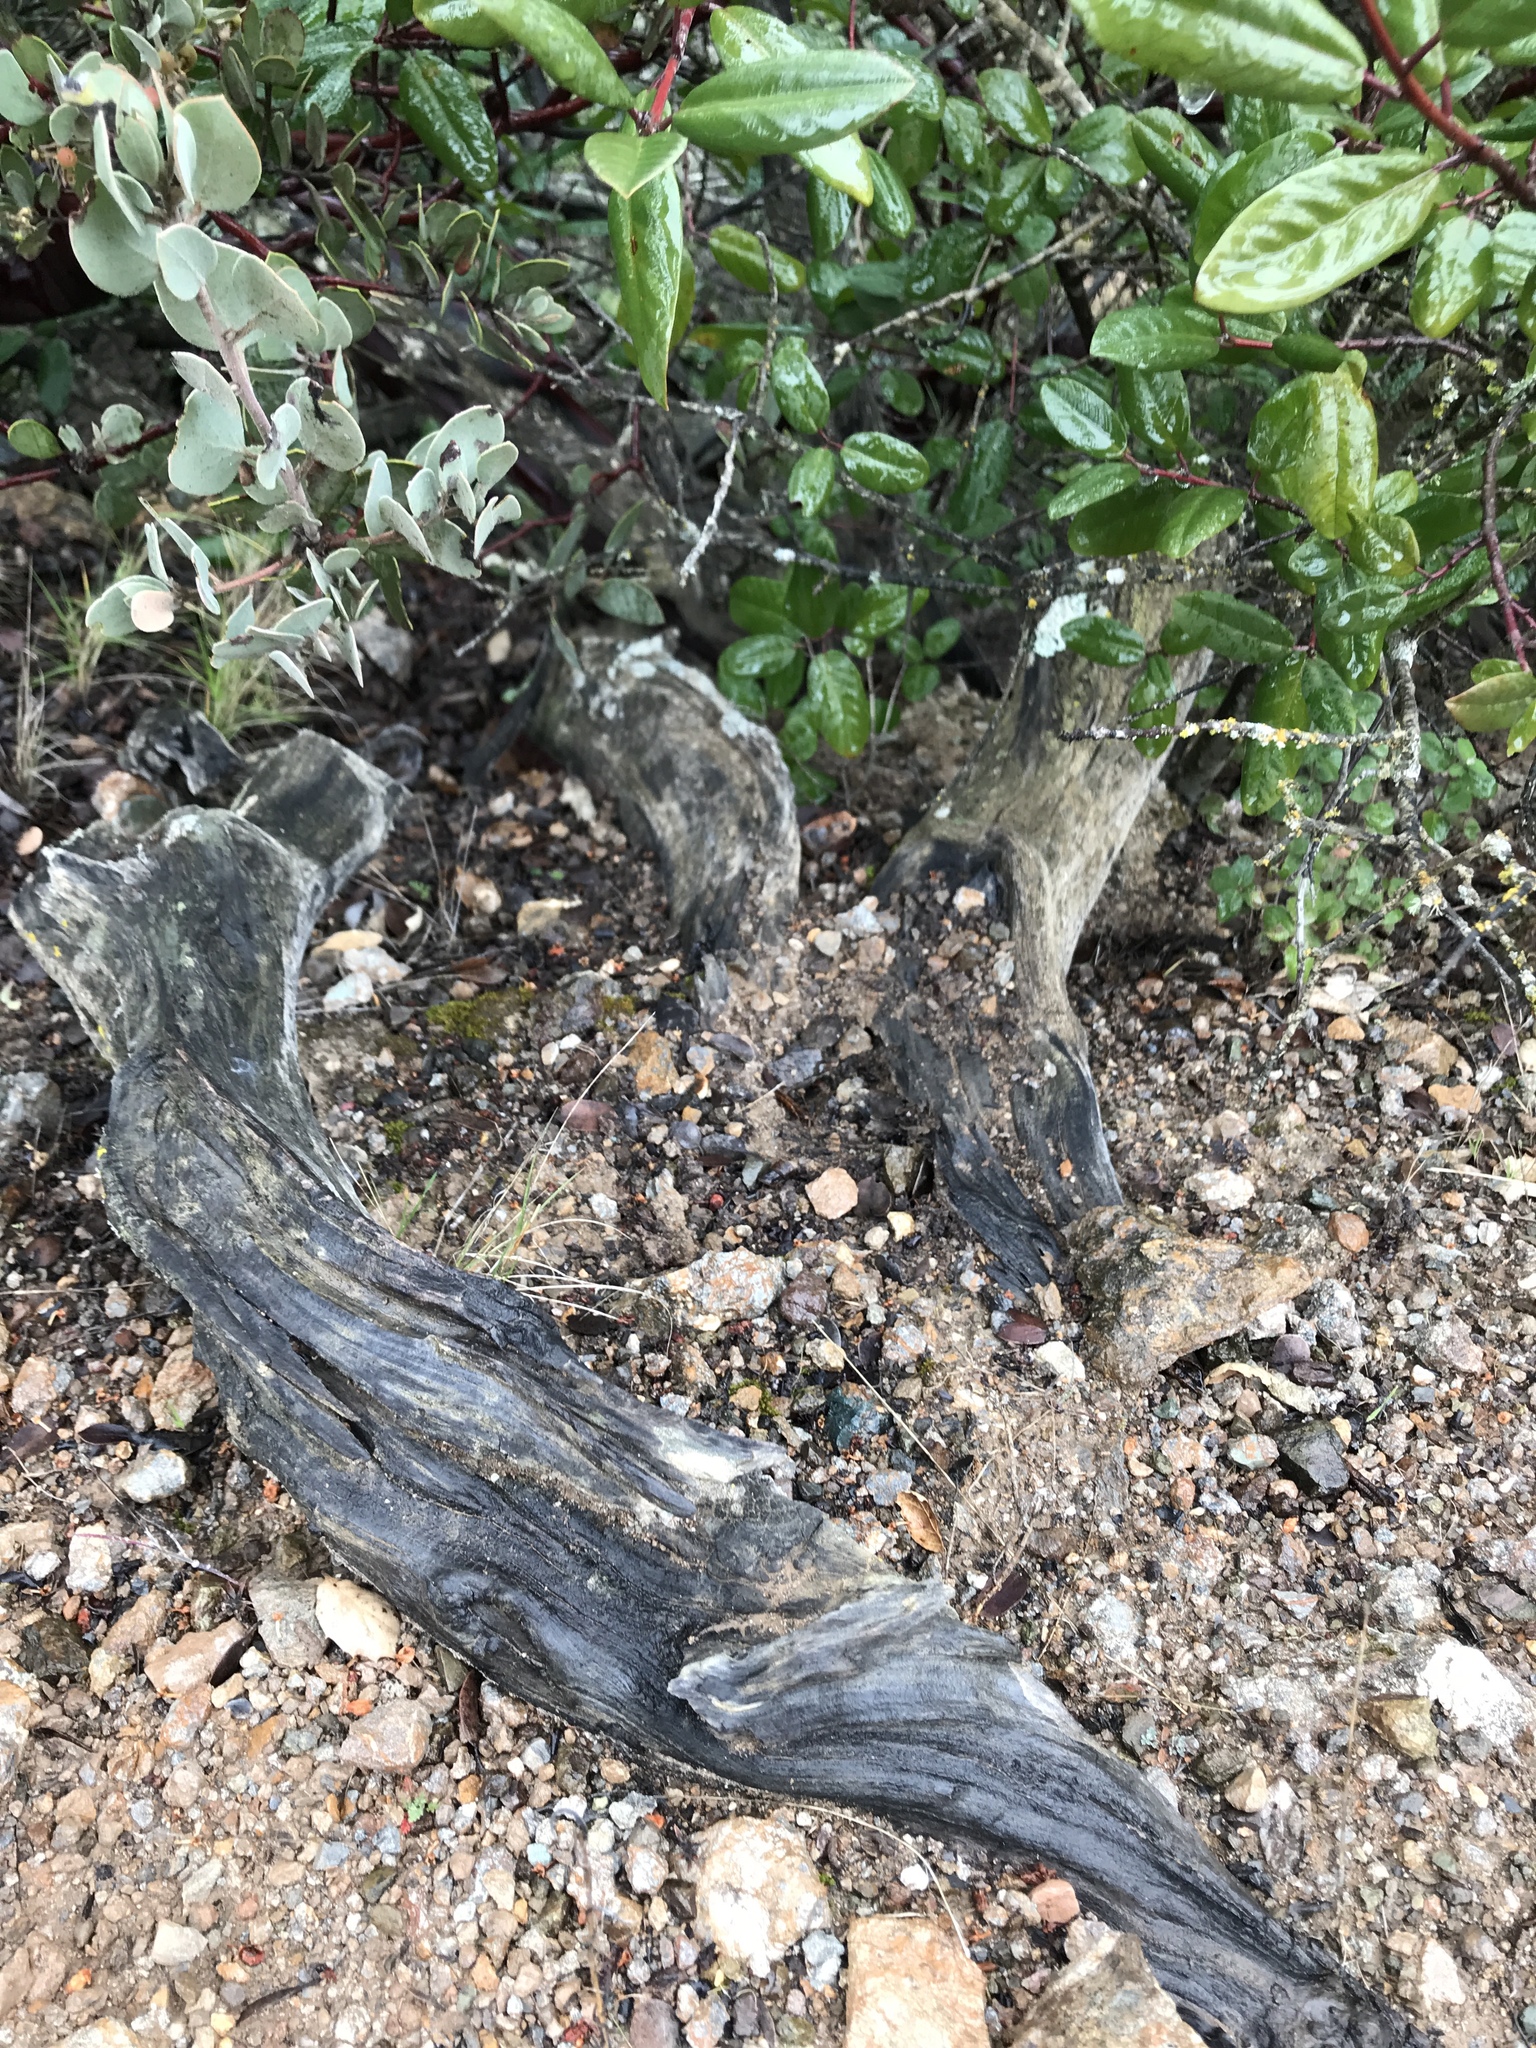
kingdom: Plantae
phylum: Tracheophyta
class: Magnoliopsida
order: Ericales
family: Ericaceae
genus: Arctostaphylos
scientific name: Arctostaphylos obispoensis
